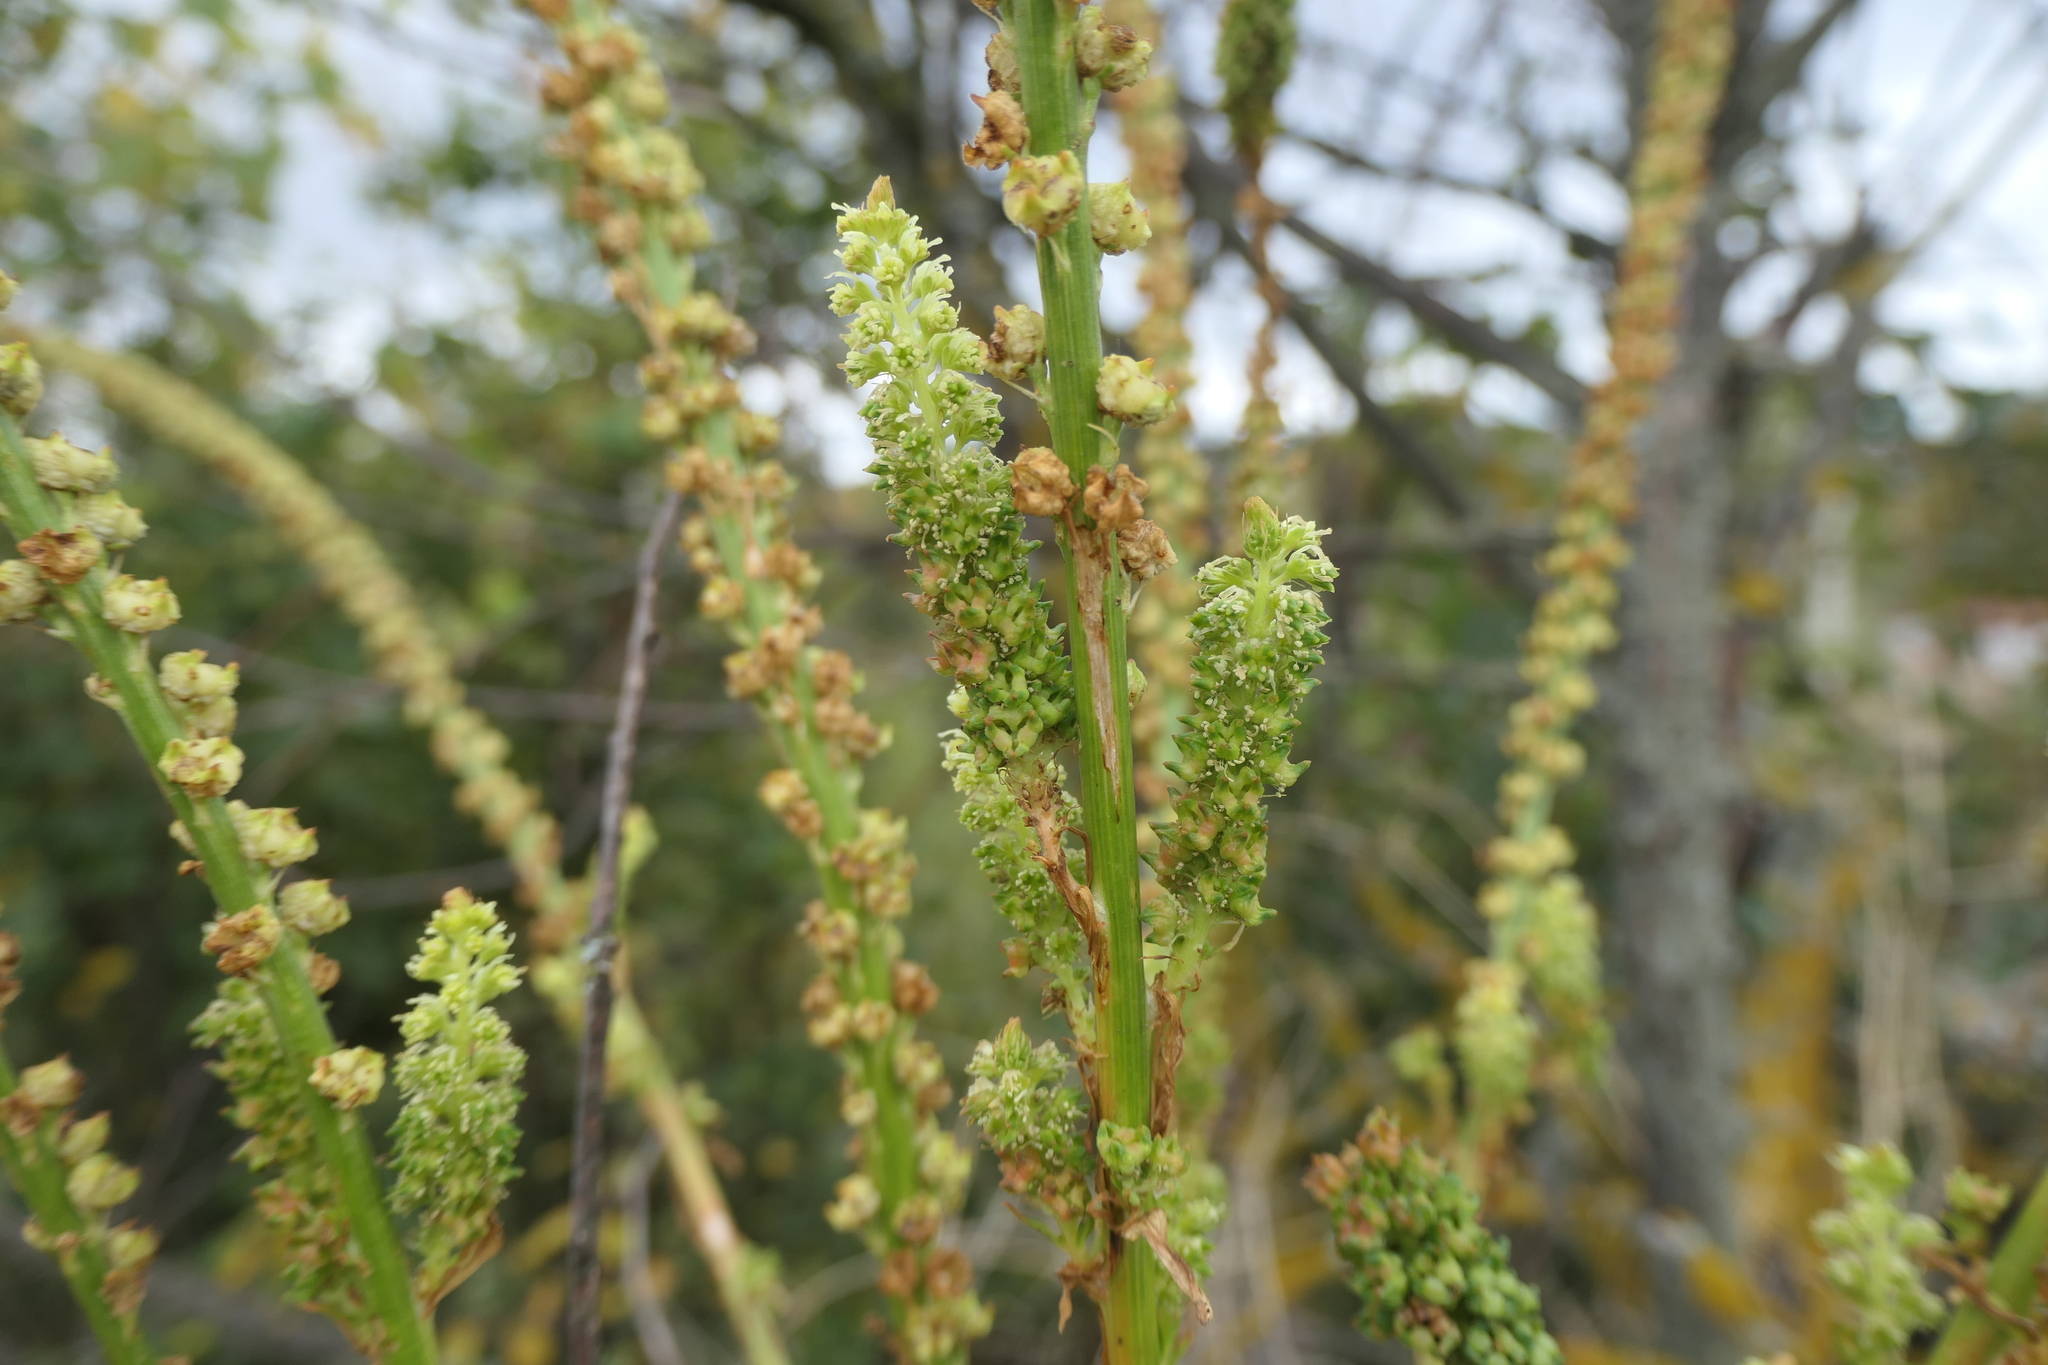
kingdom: Plantae
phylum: Tracheophyta
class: Magnoliopsida
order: Brassicales
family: Resedaceae
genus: Reseda
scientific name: Reseda luteola
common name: Weld
